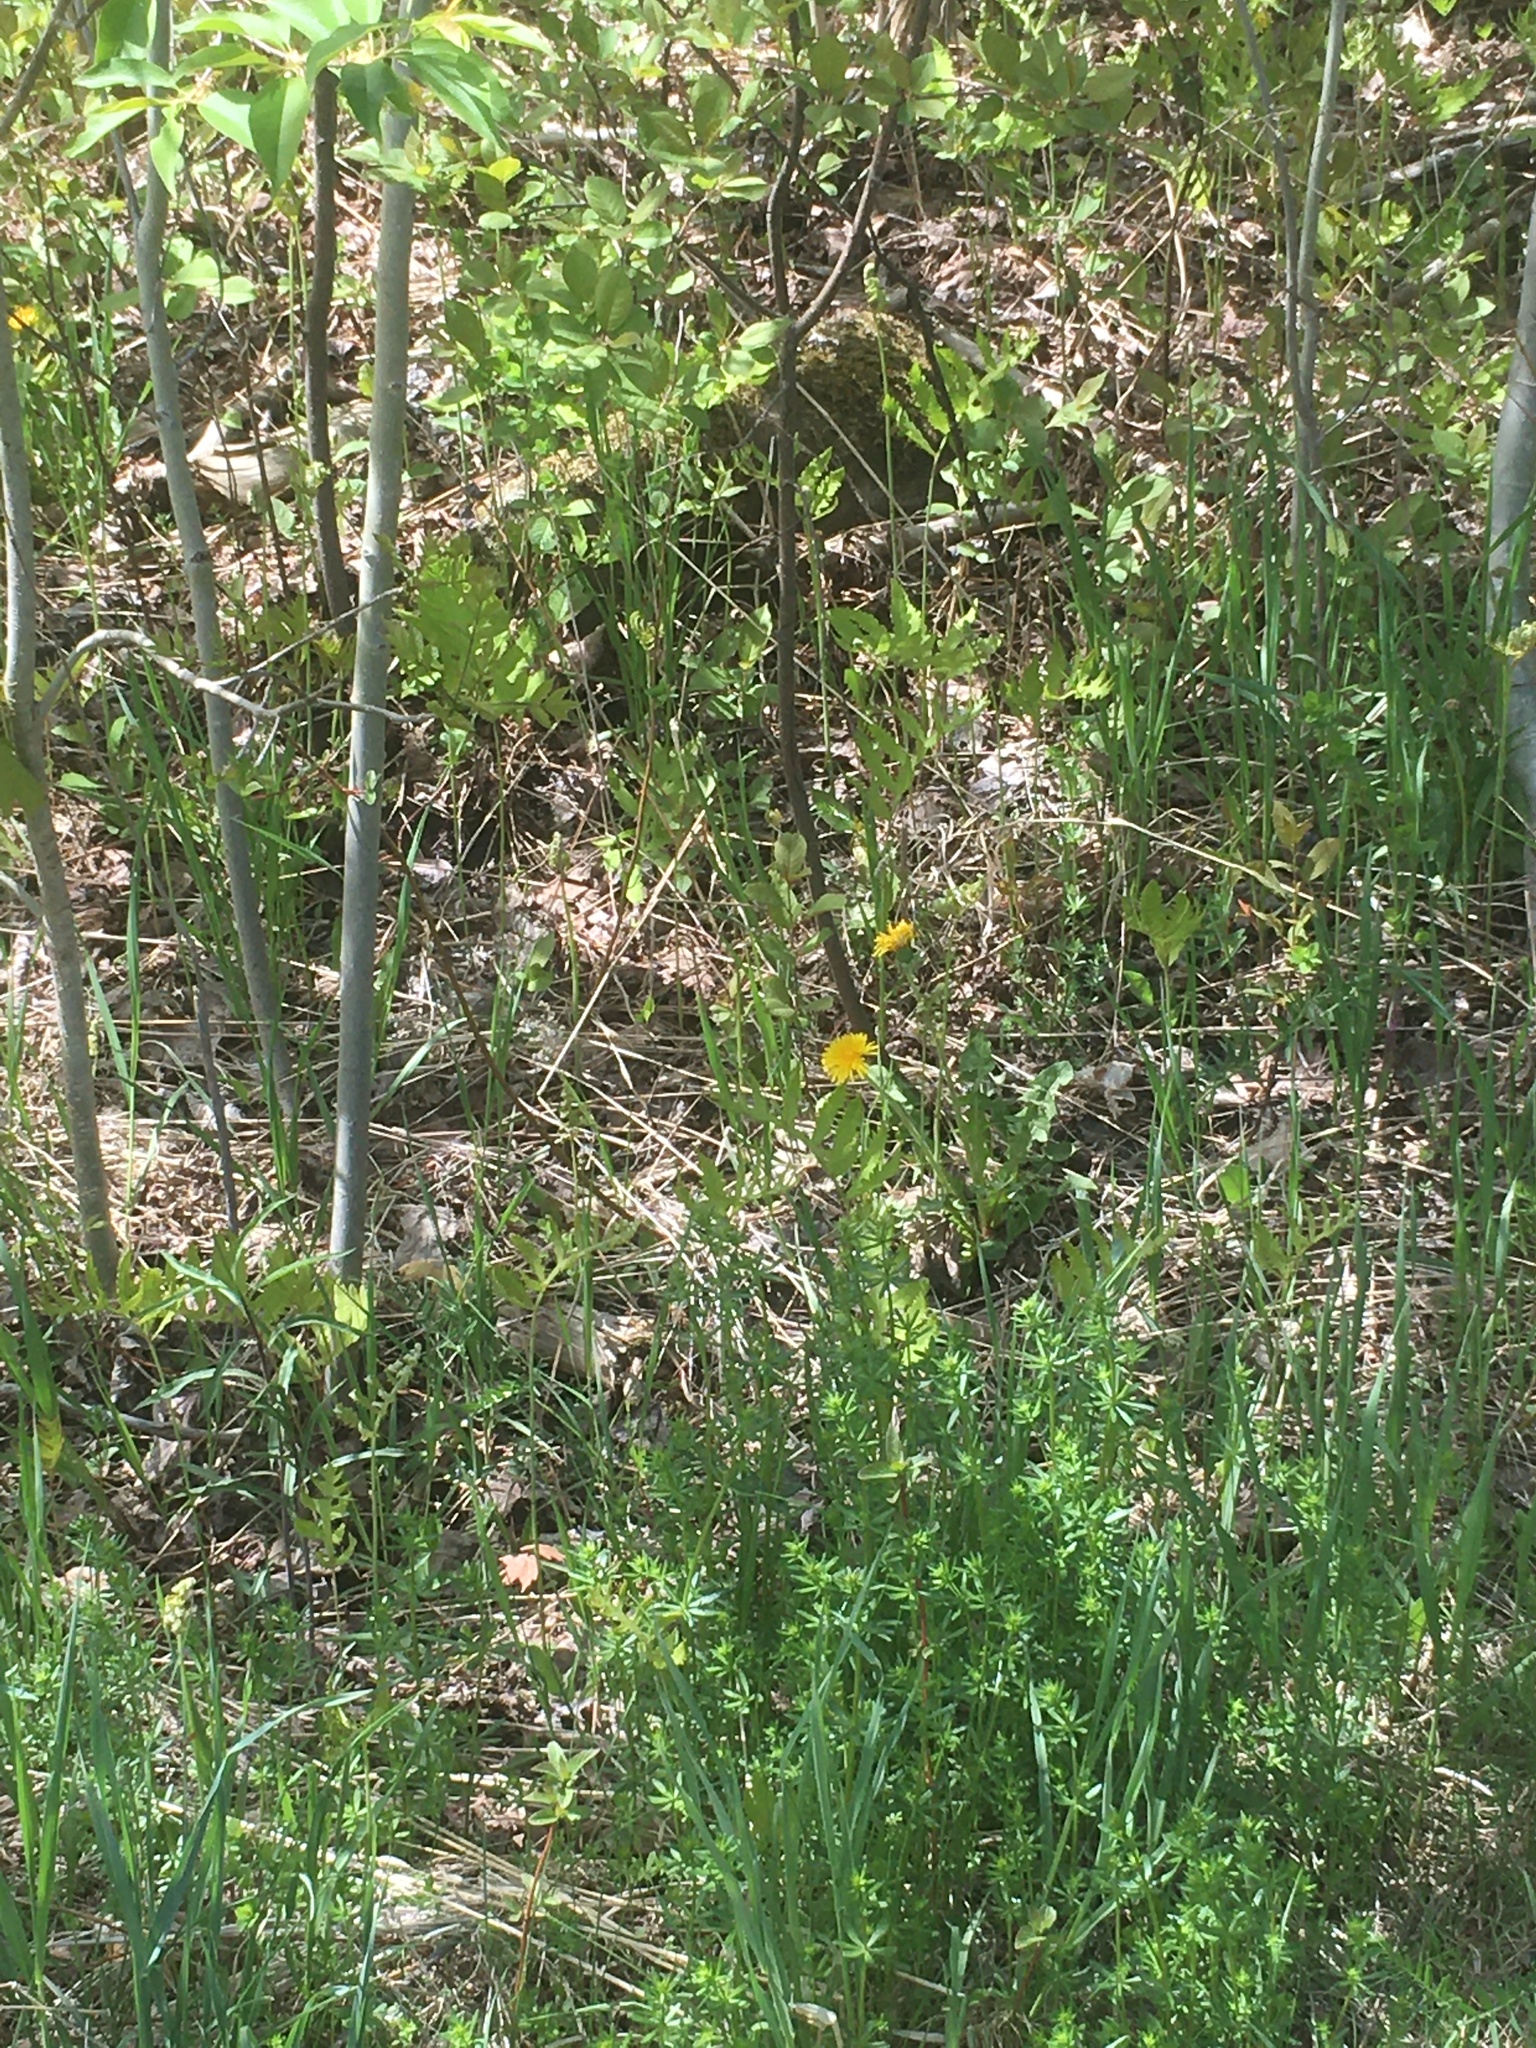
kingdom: Plantae
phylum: Tracheophyta
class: Polypodiopsida
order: Polypodiales
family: Onocleaceae
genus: Onoclea
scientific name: Onoclea sensibilis
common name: Sensitive fern
